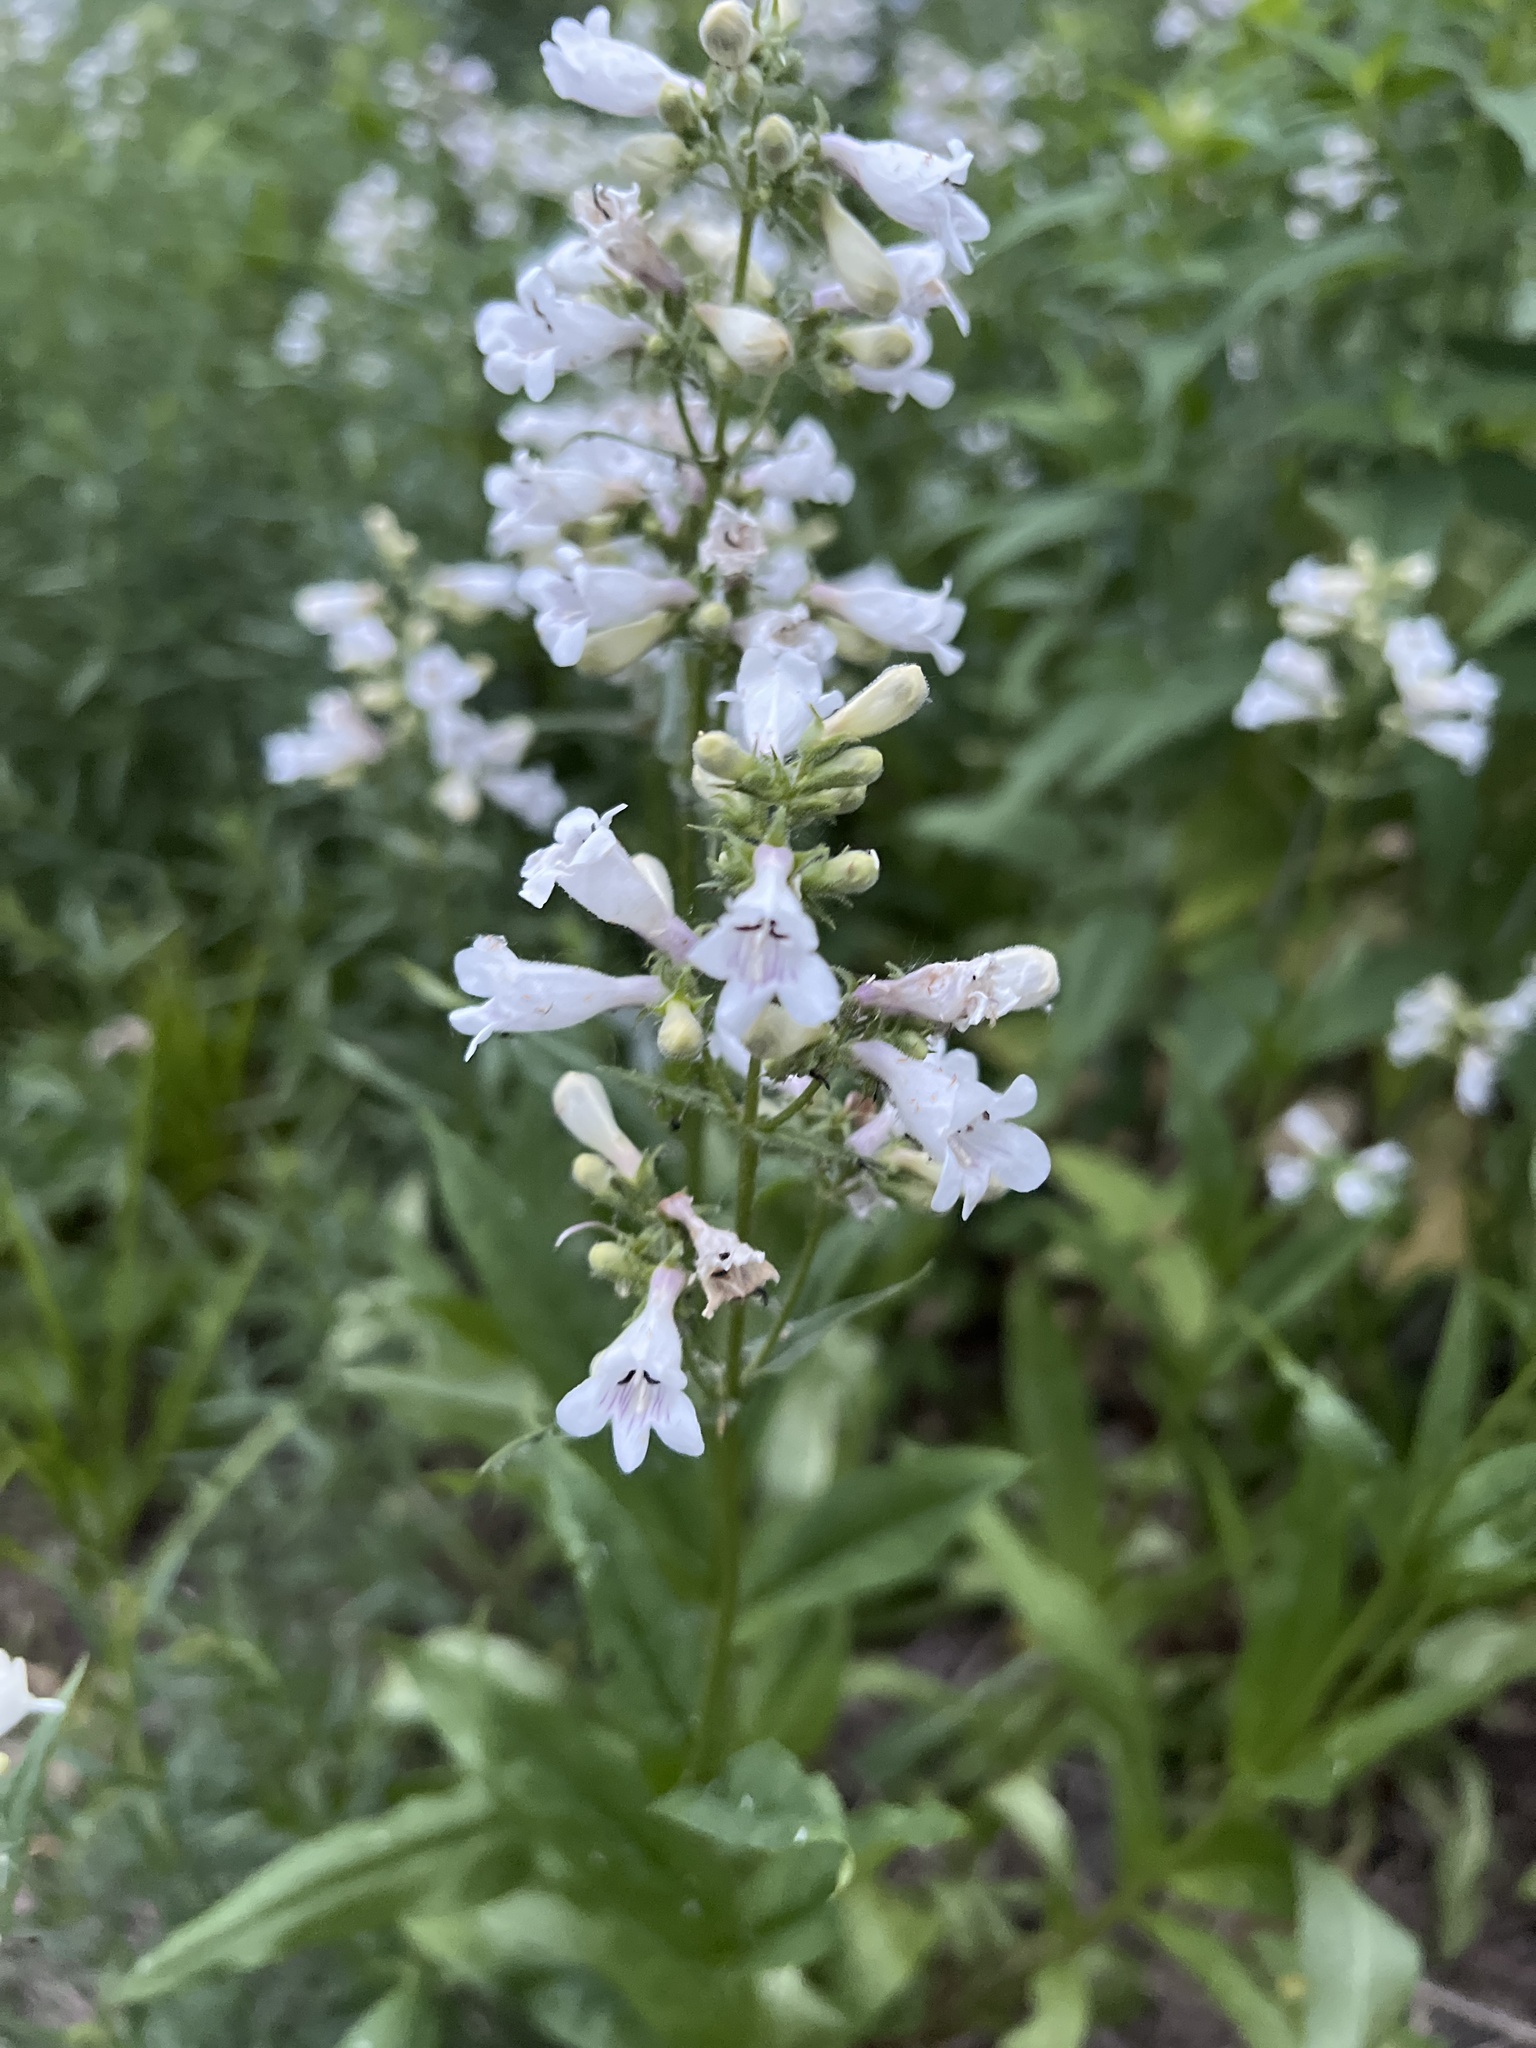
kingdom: Plantae
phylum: Tracheophyta
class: Magnoliopsida
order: Lamiales
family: Plantaginaceae
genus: Penstemon
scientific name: Penstemon digitalis
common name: Foxglove beardtongue
